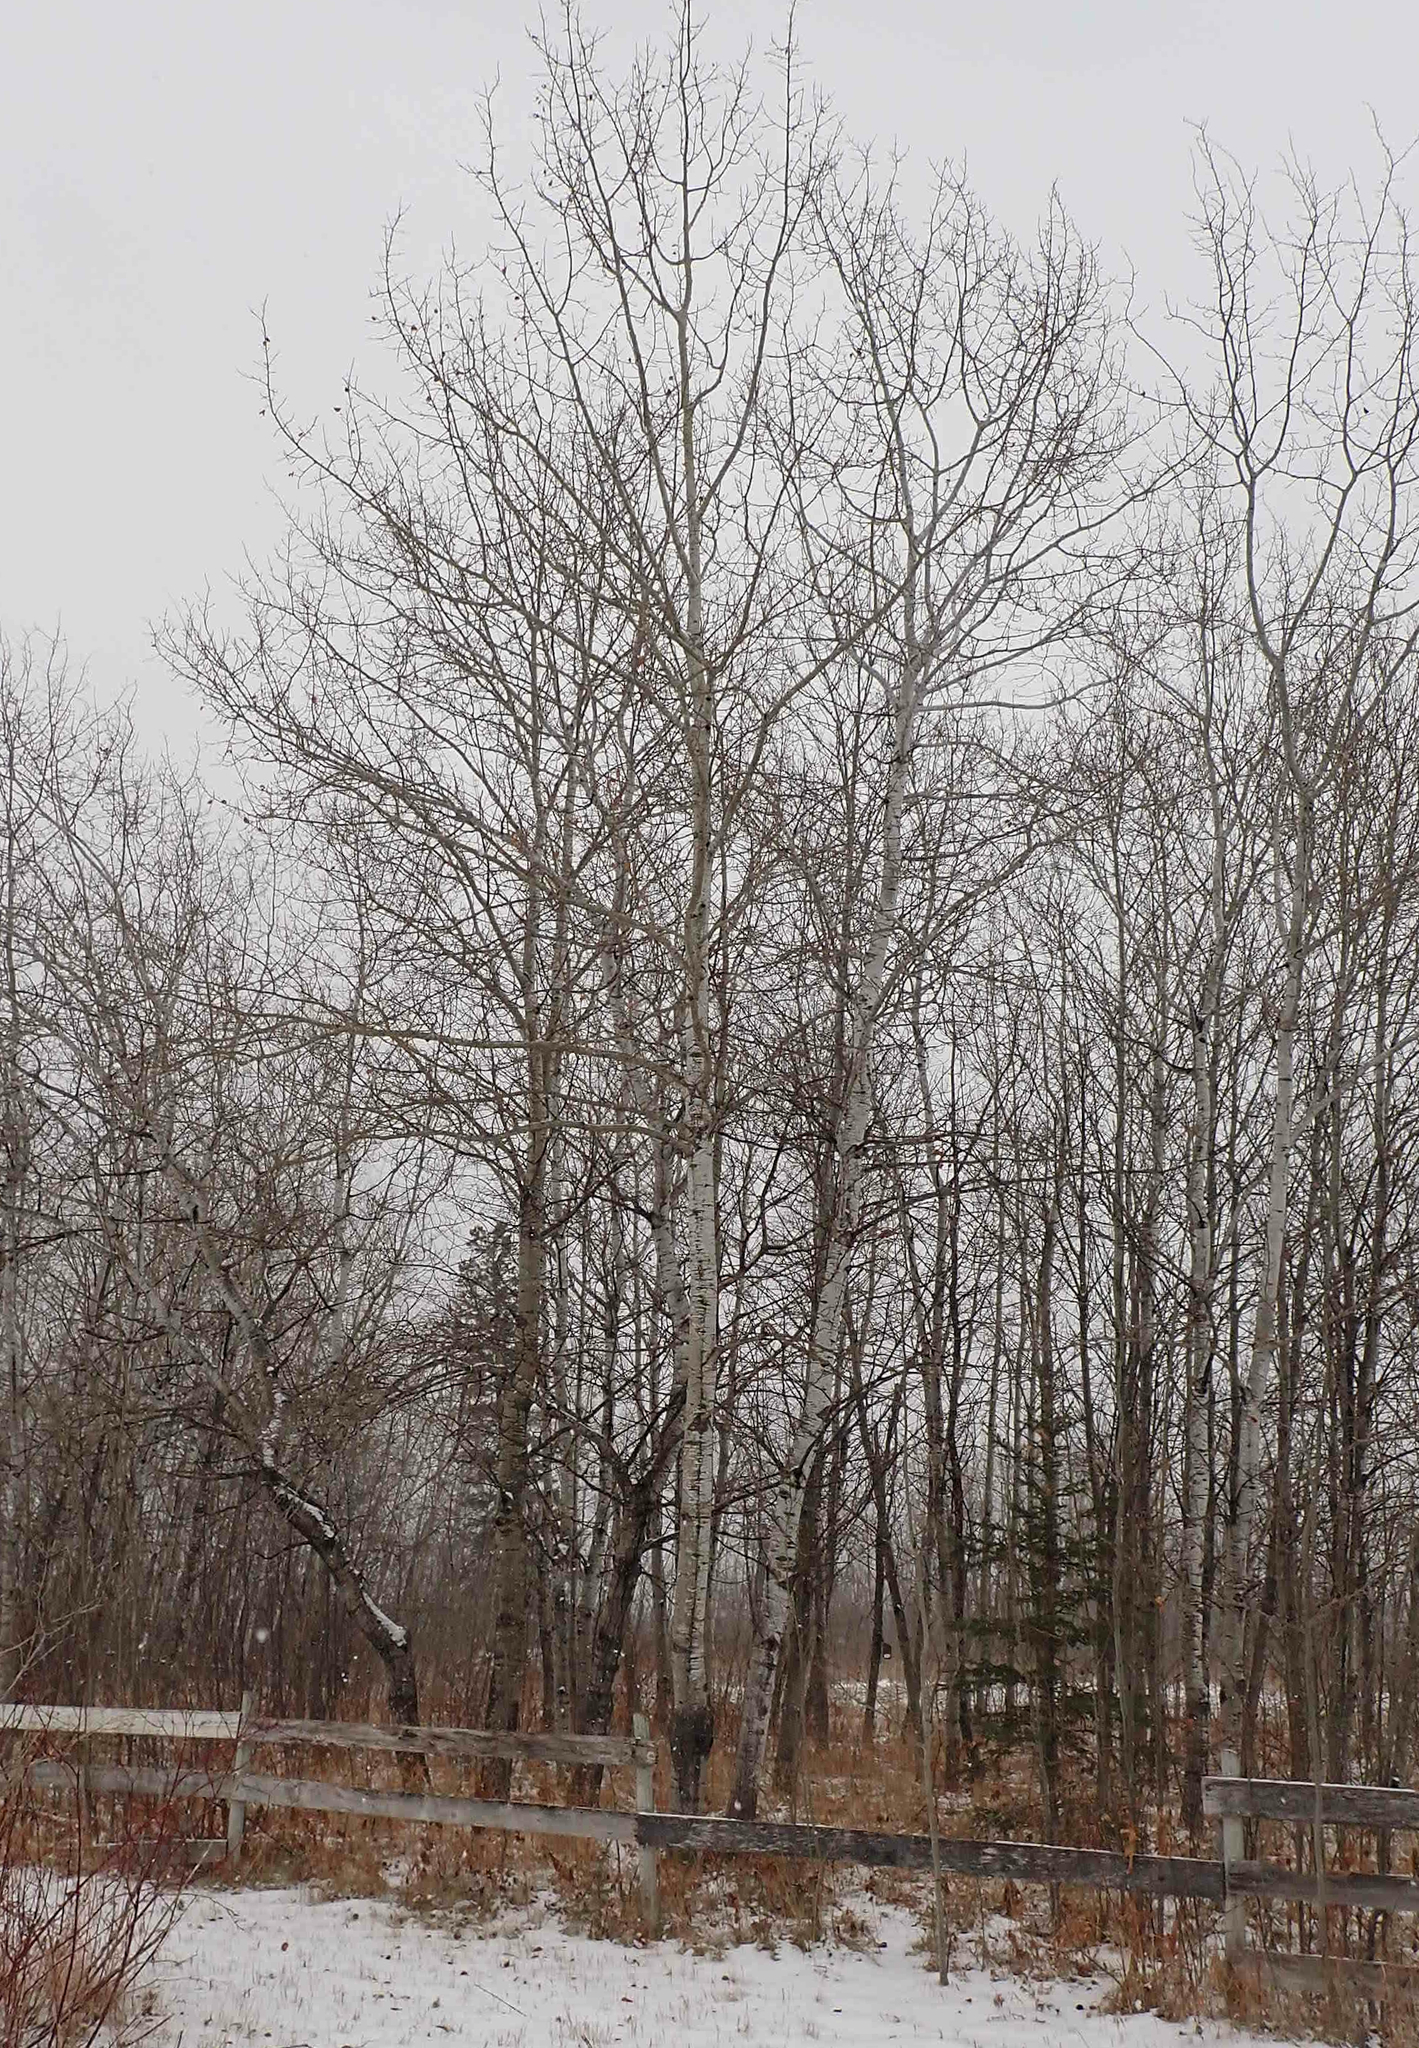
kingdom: Plantae
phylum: Tracheophyta
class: Magnoliopsida
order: Malpighiales
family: Salicaceae
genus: Populus
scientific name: Populus tremuloides
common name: Quaking aspen
